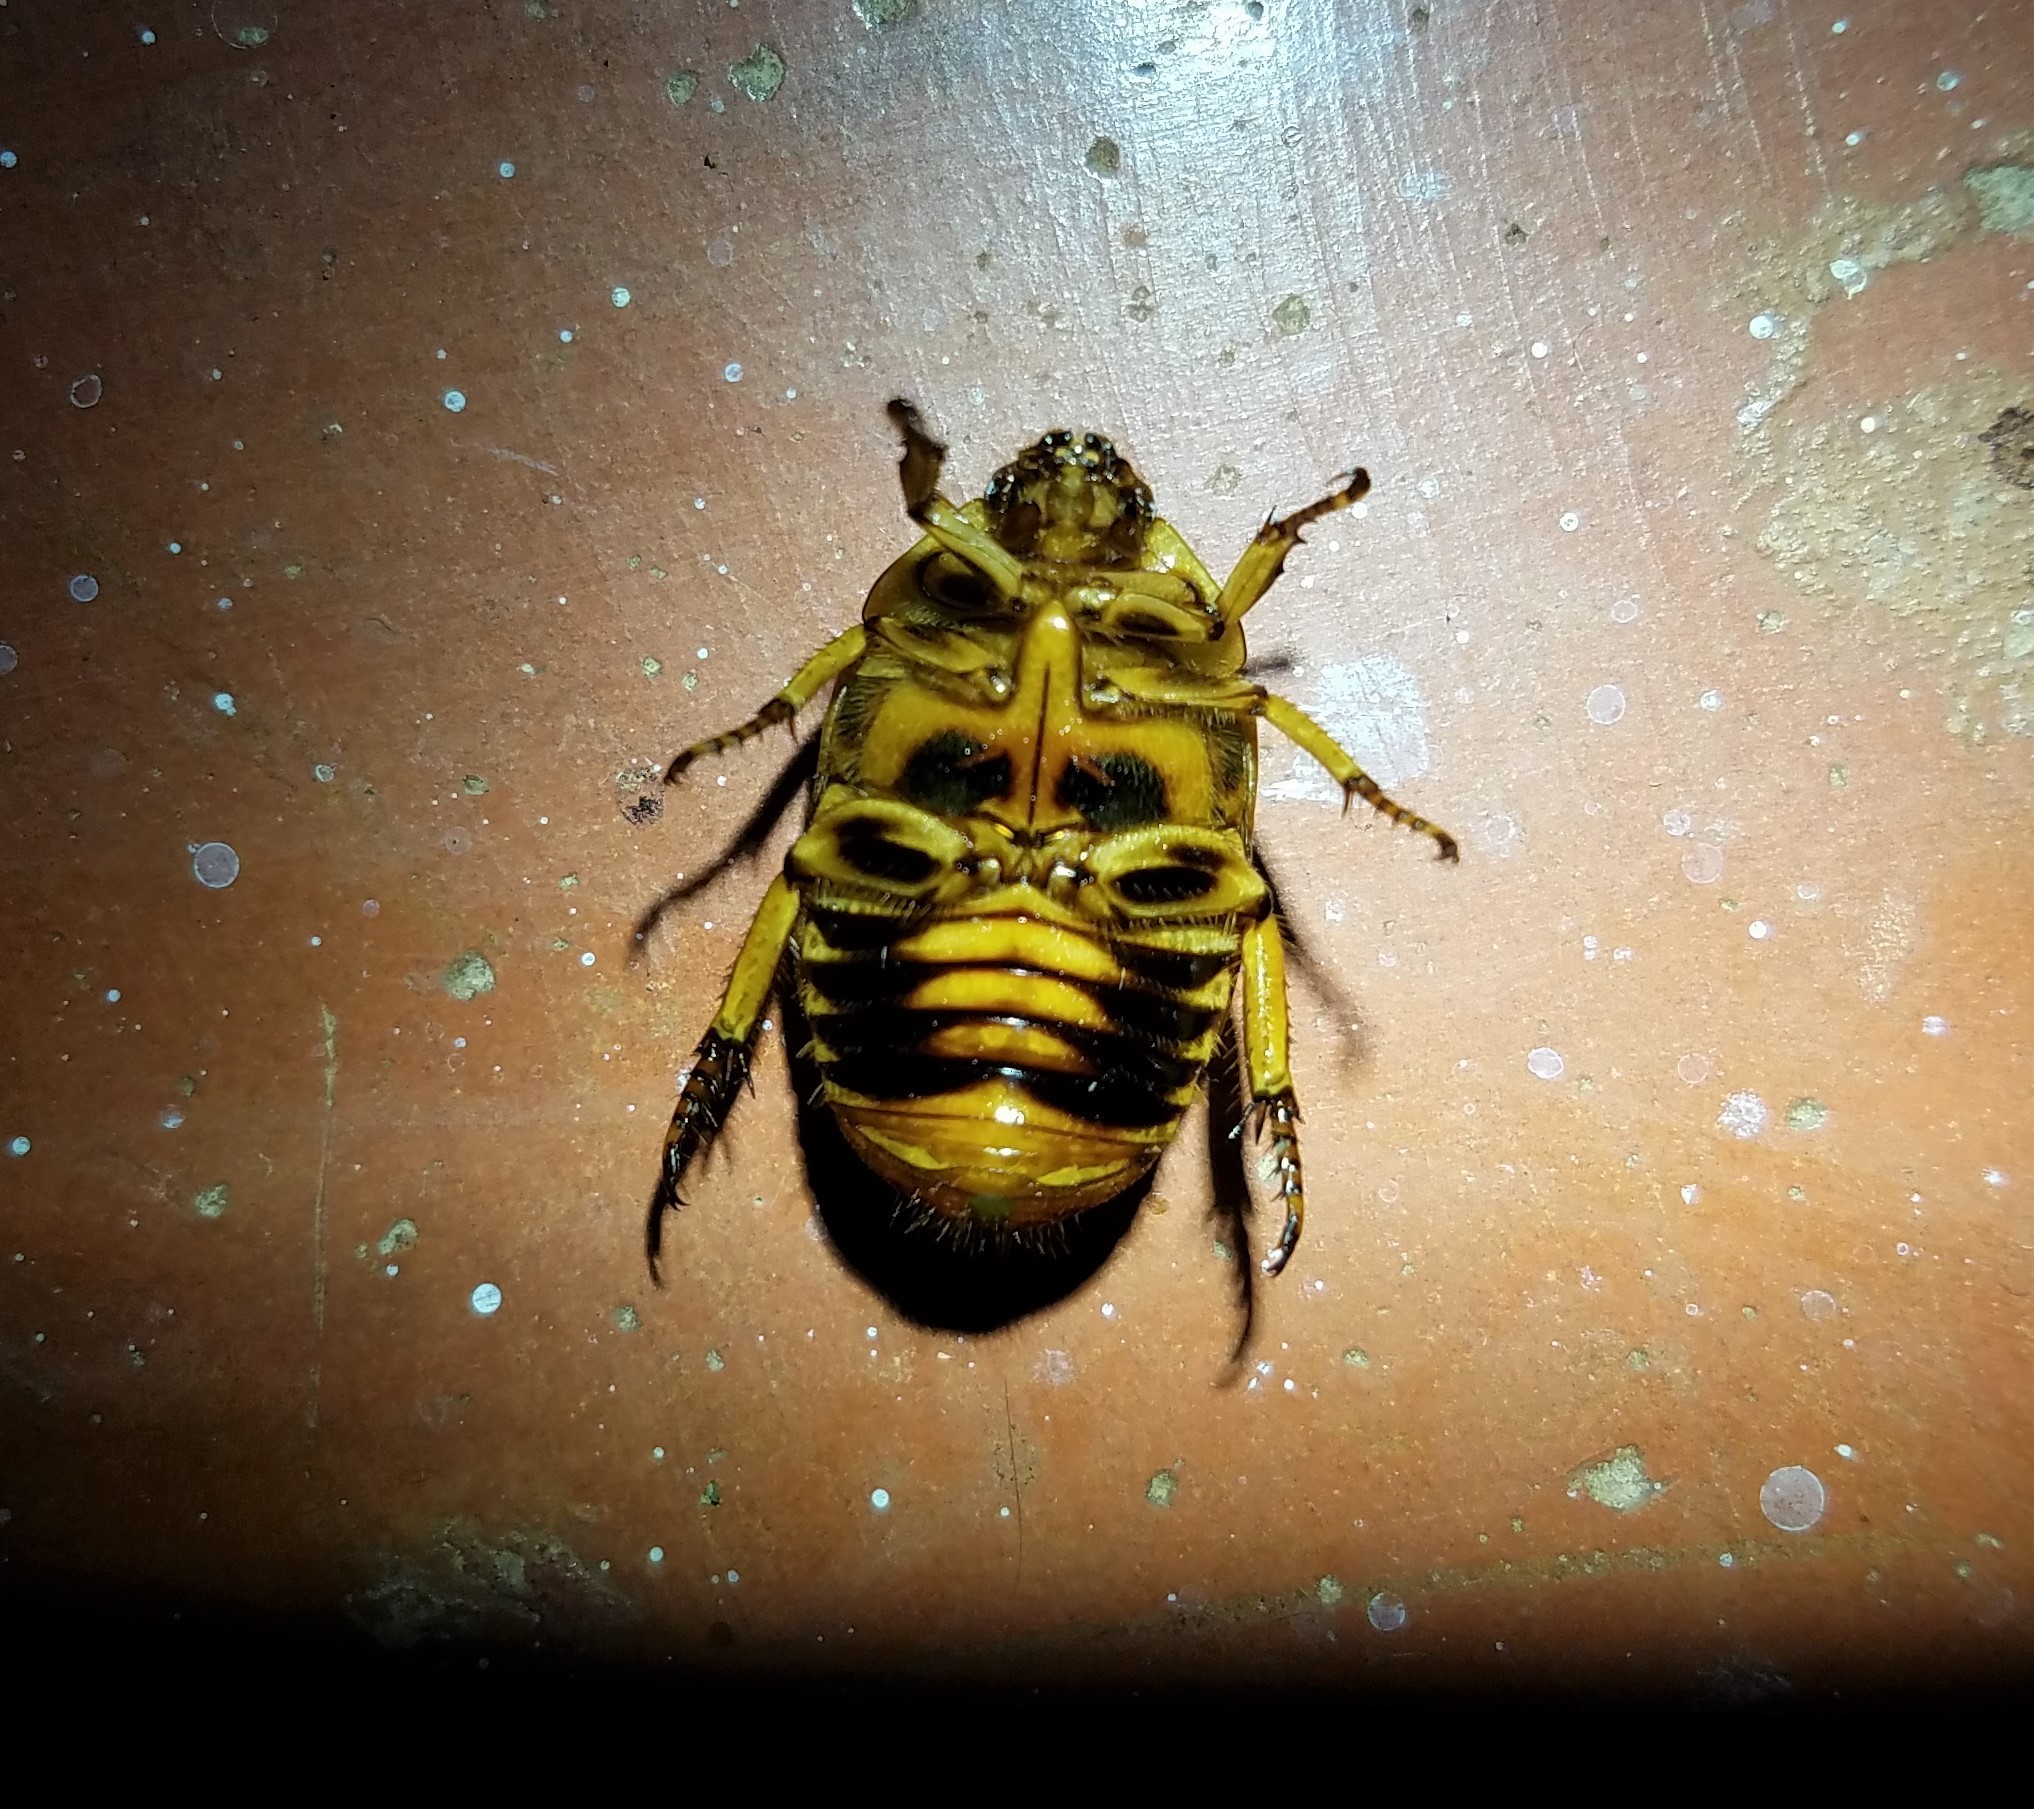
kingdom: Animalia
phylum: Arthropoda
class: Insecta
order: Coleoptera
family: Scarabaeidae
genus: Lagochile
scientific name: Lagochile
